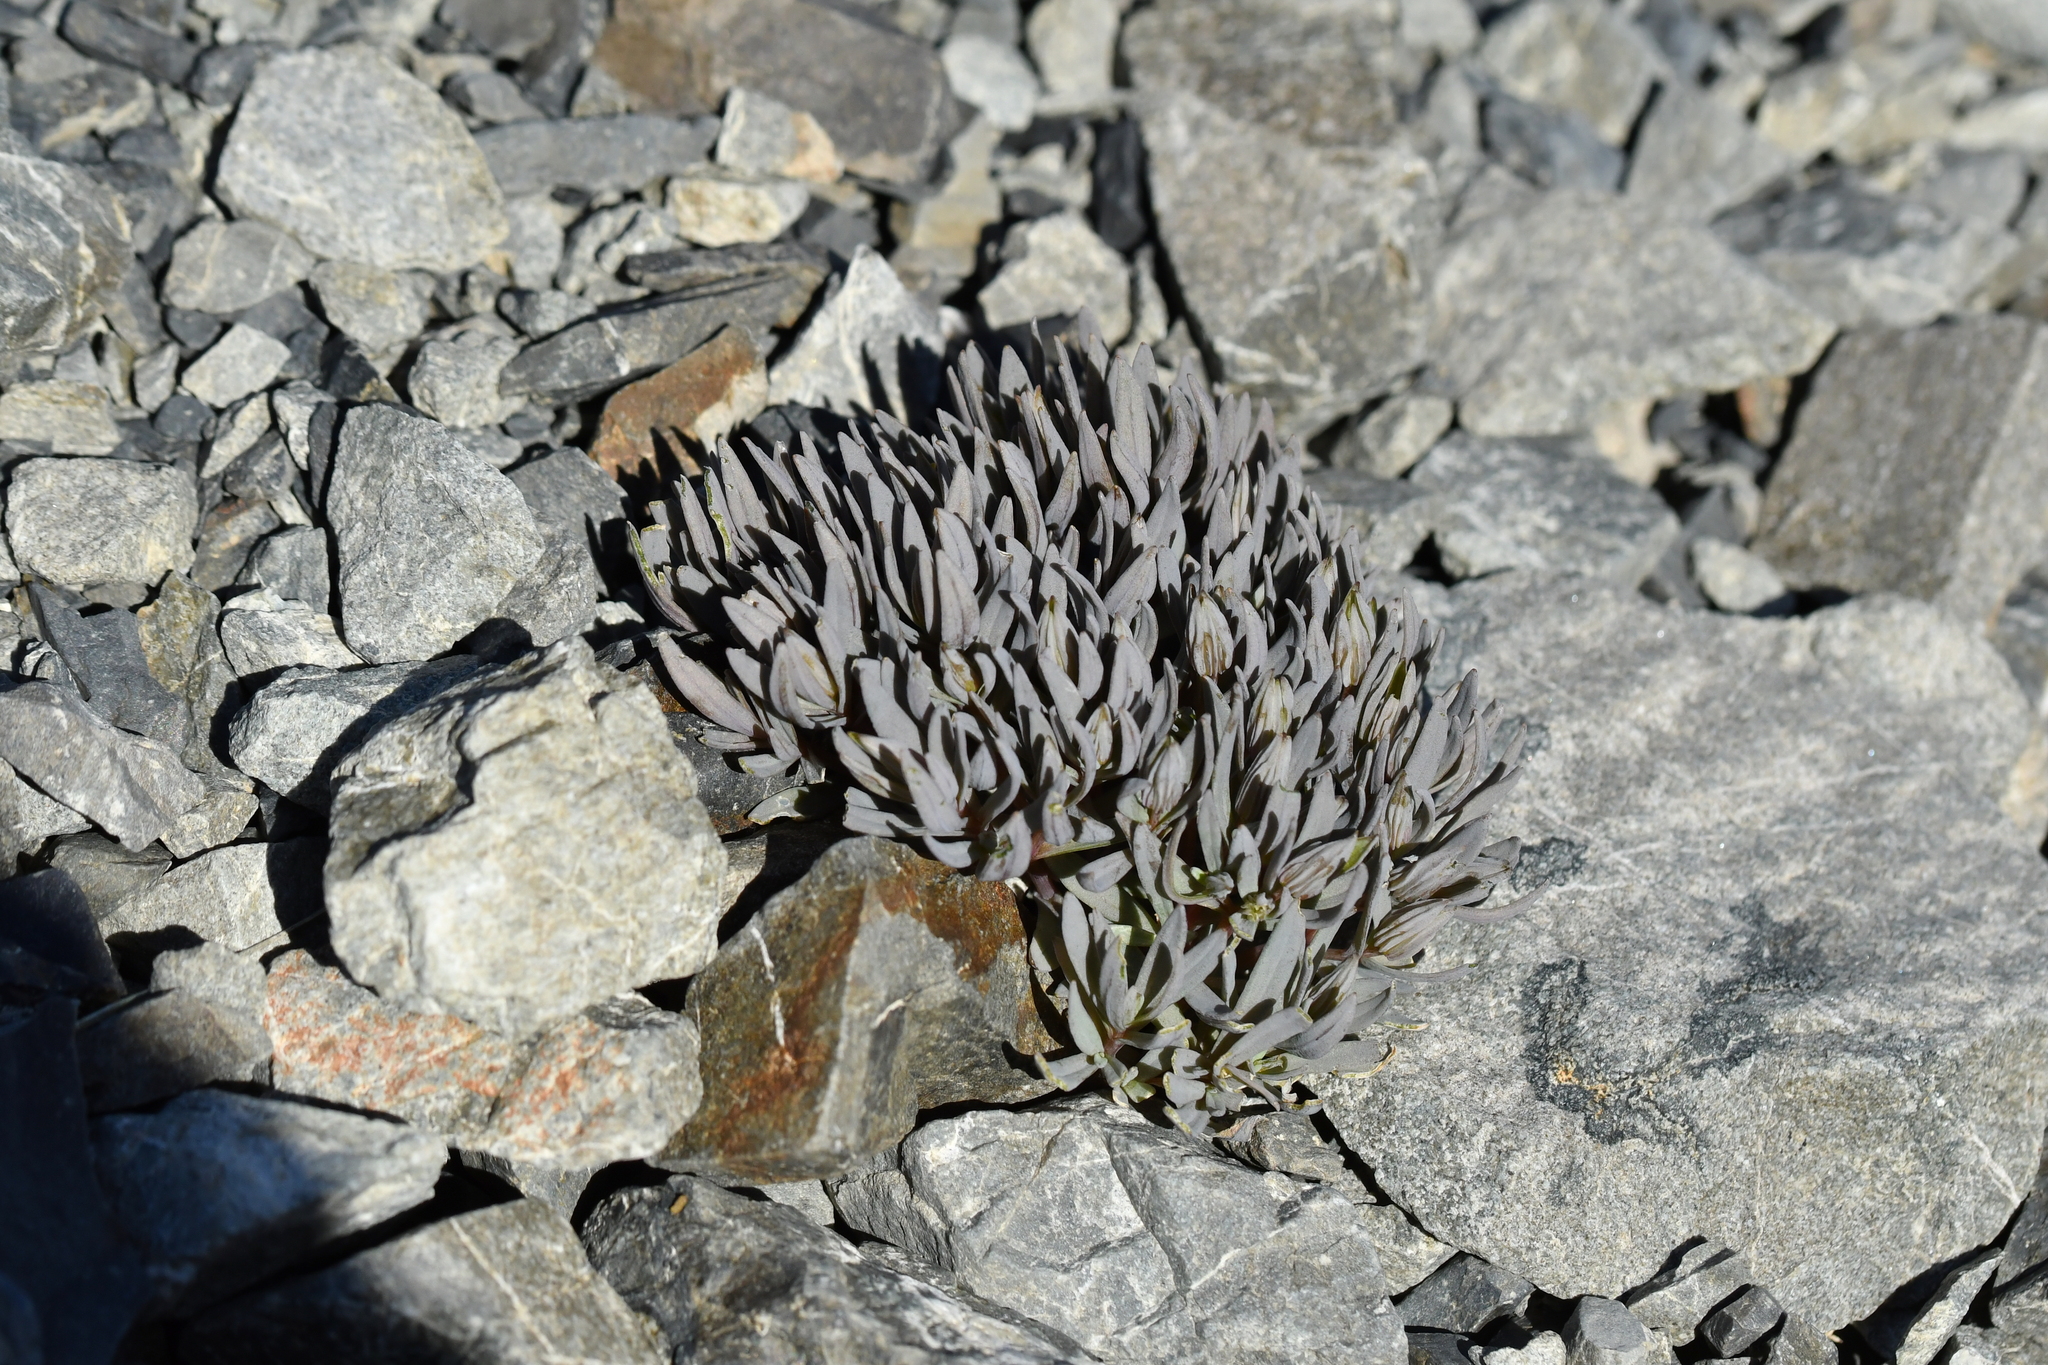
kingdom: Plantae
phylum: Tracheophyta
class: Magnoliopsida
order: Caryophyllales
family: Caryophyllaceae
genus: Stellaria
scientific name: Stellaria roughii
